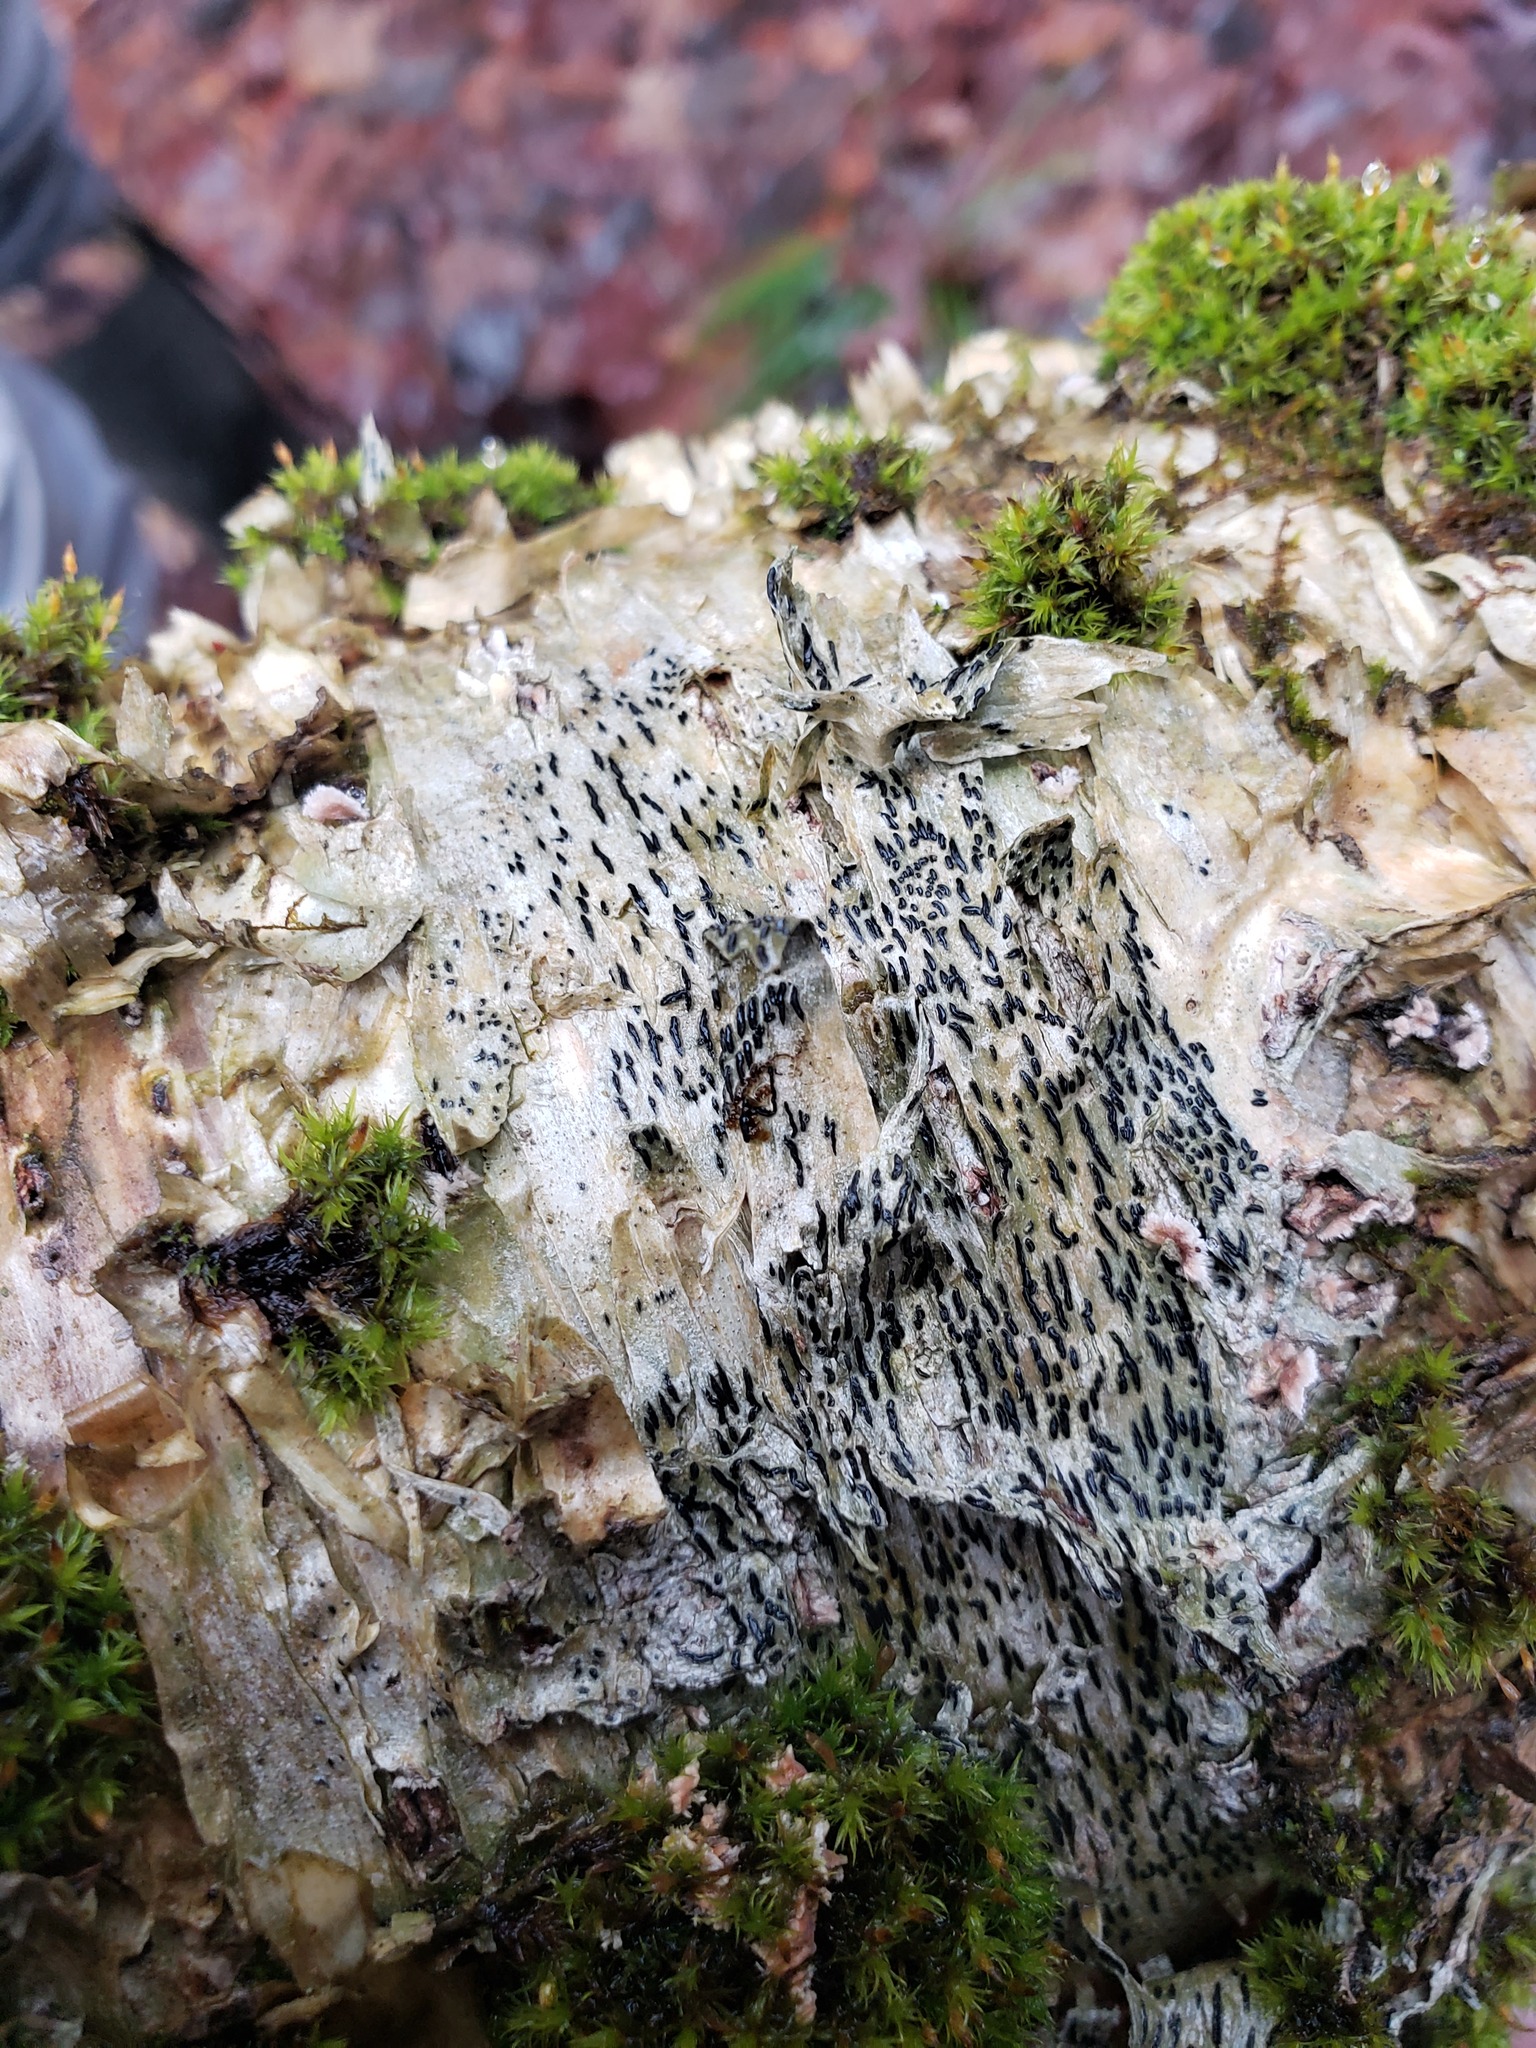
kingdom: Fungi
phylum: Ascomycota
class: Lecanoromycetes
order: Ostropales
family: Graphidaceae
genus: Graphis
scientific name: Graphis scripta
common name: Script lichen
